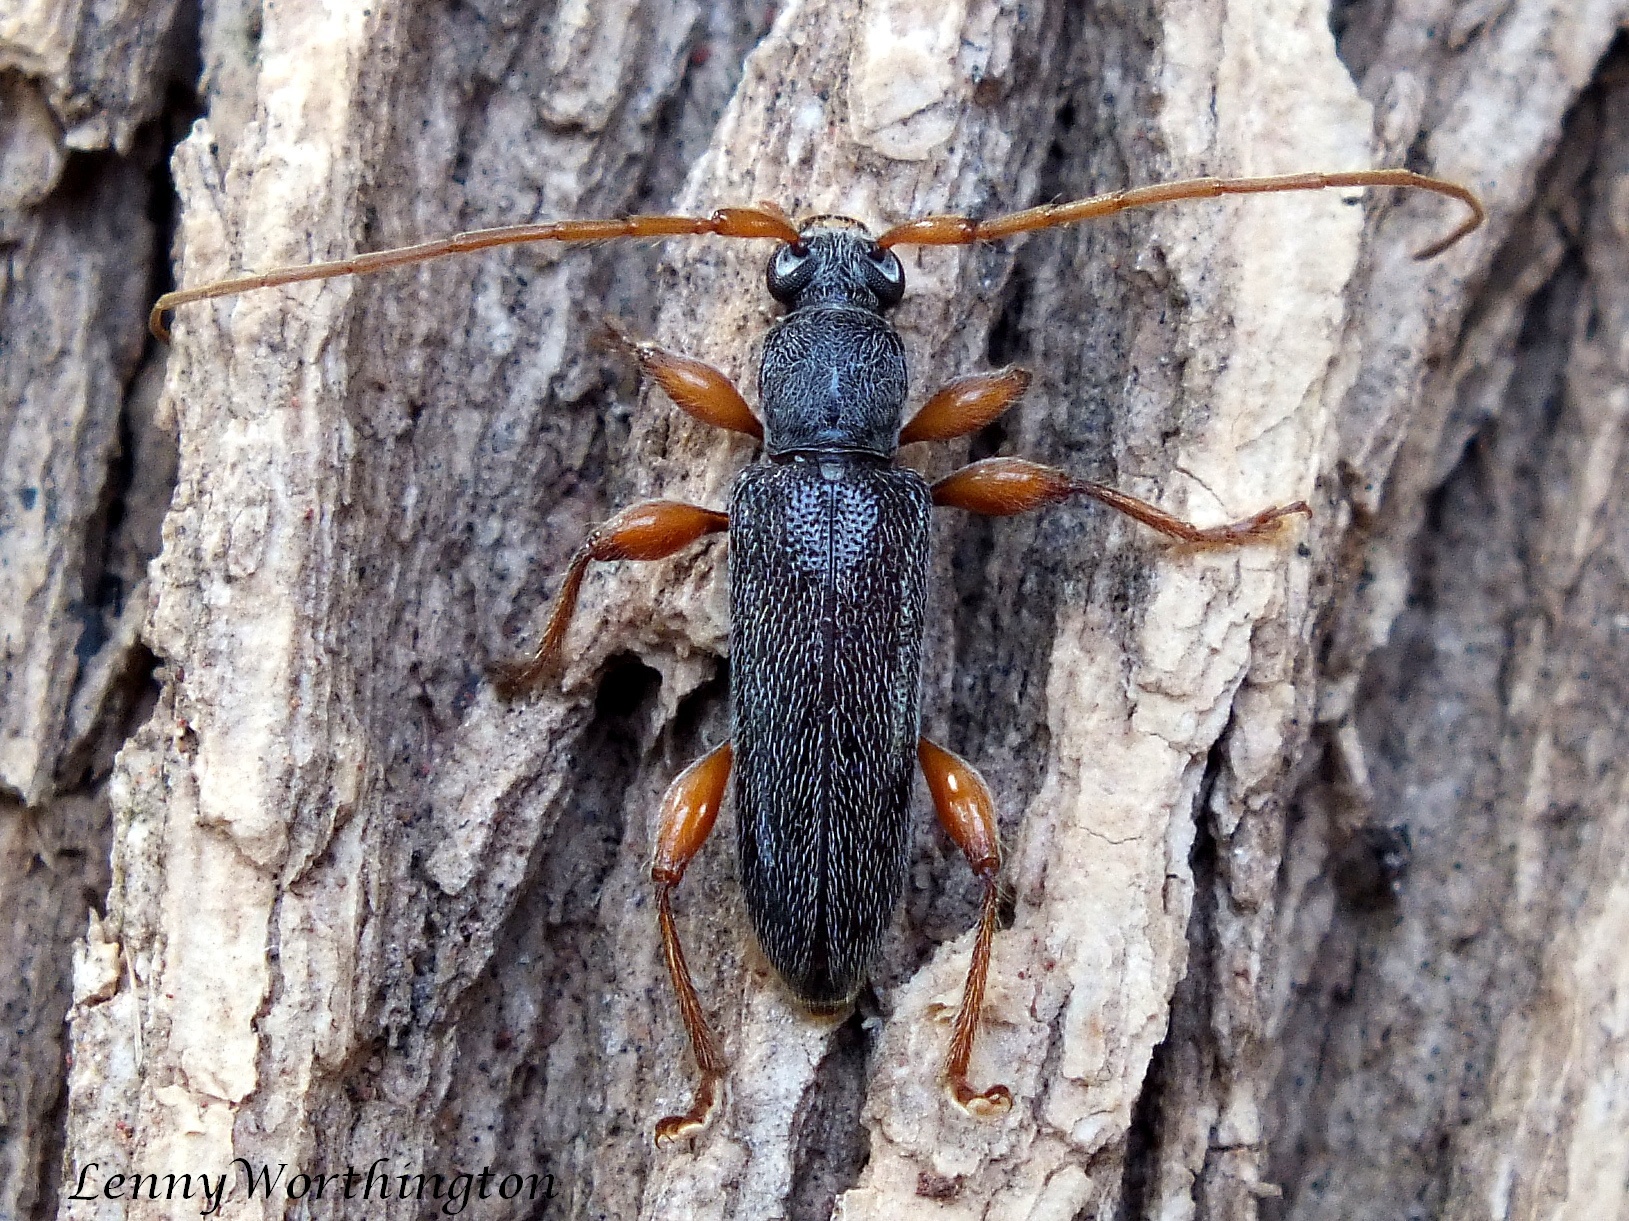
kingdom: Animalia
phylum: Arthropoda
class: Insecta
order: Coleoptera
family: Cerambycidae
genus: Ceresium
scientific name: Ceresium delauneyi
